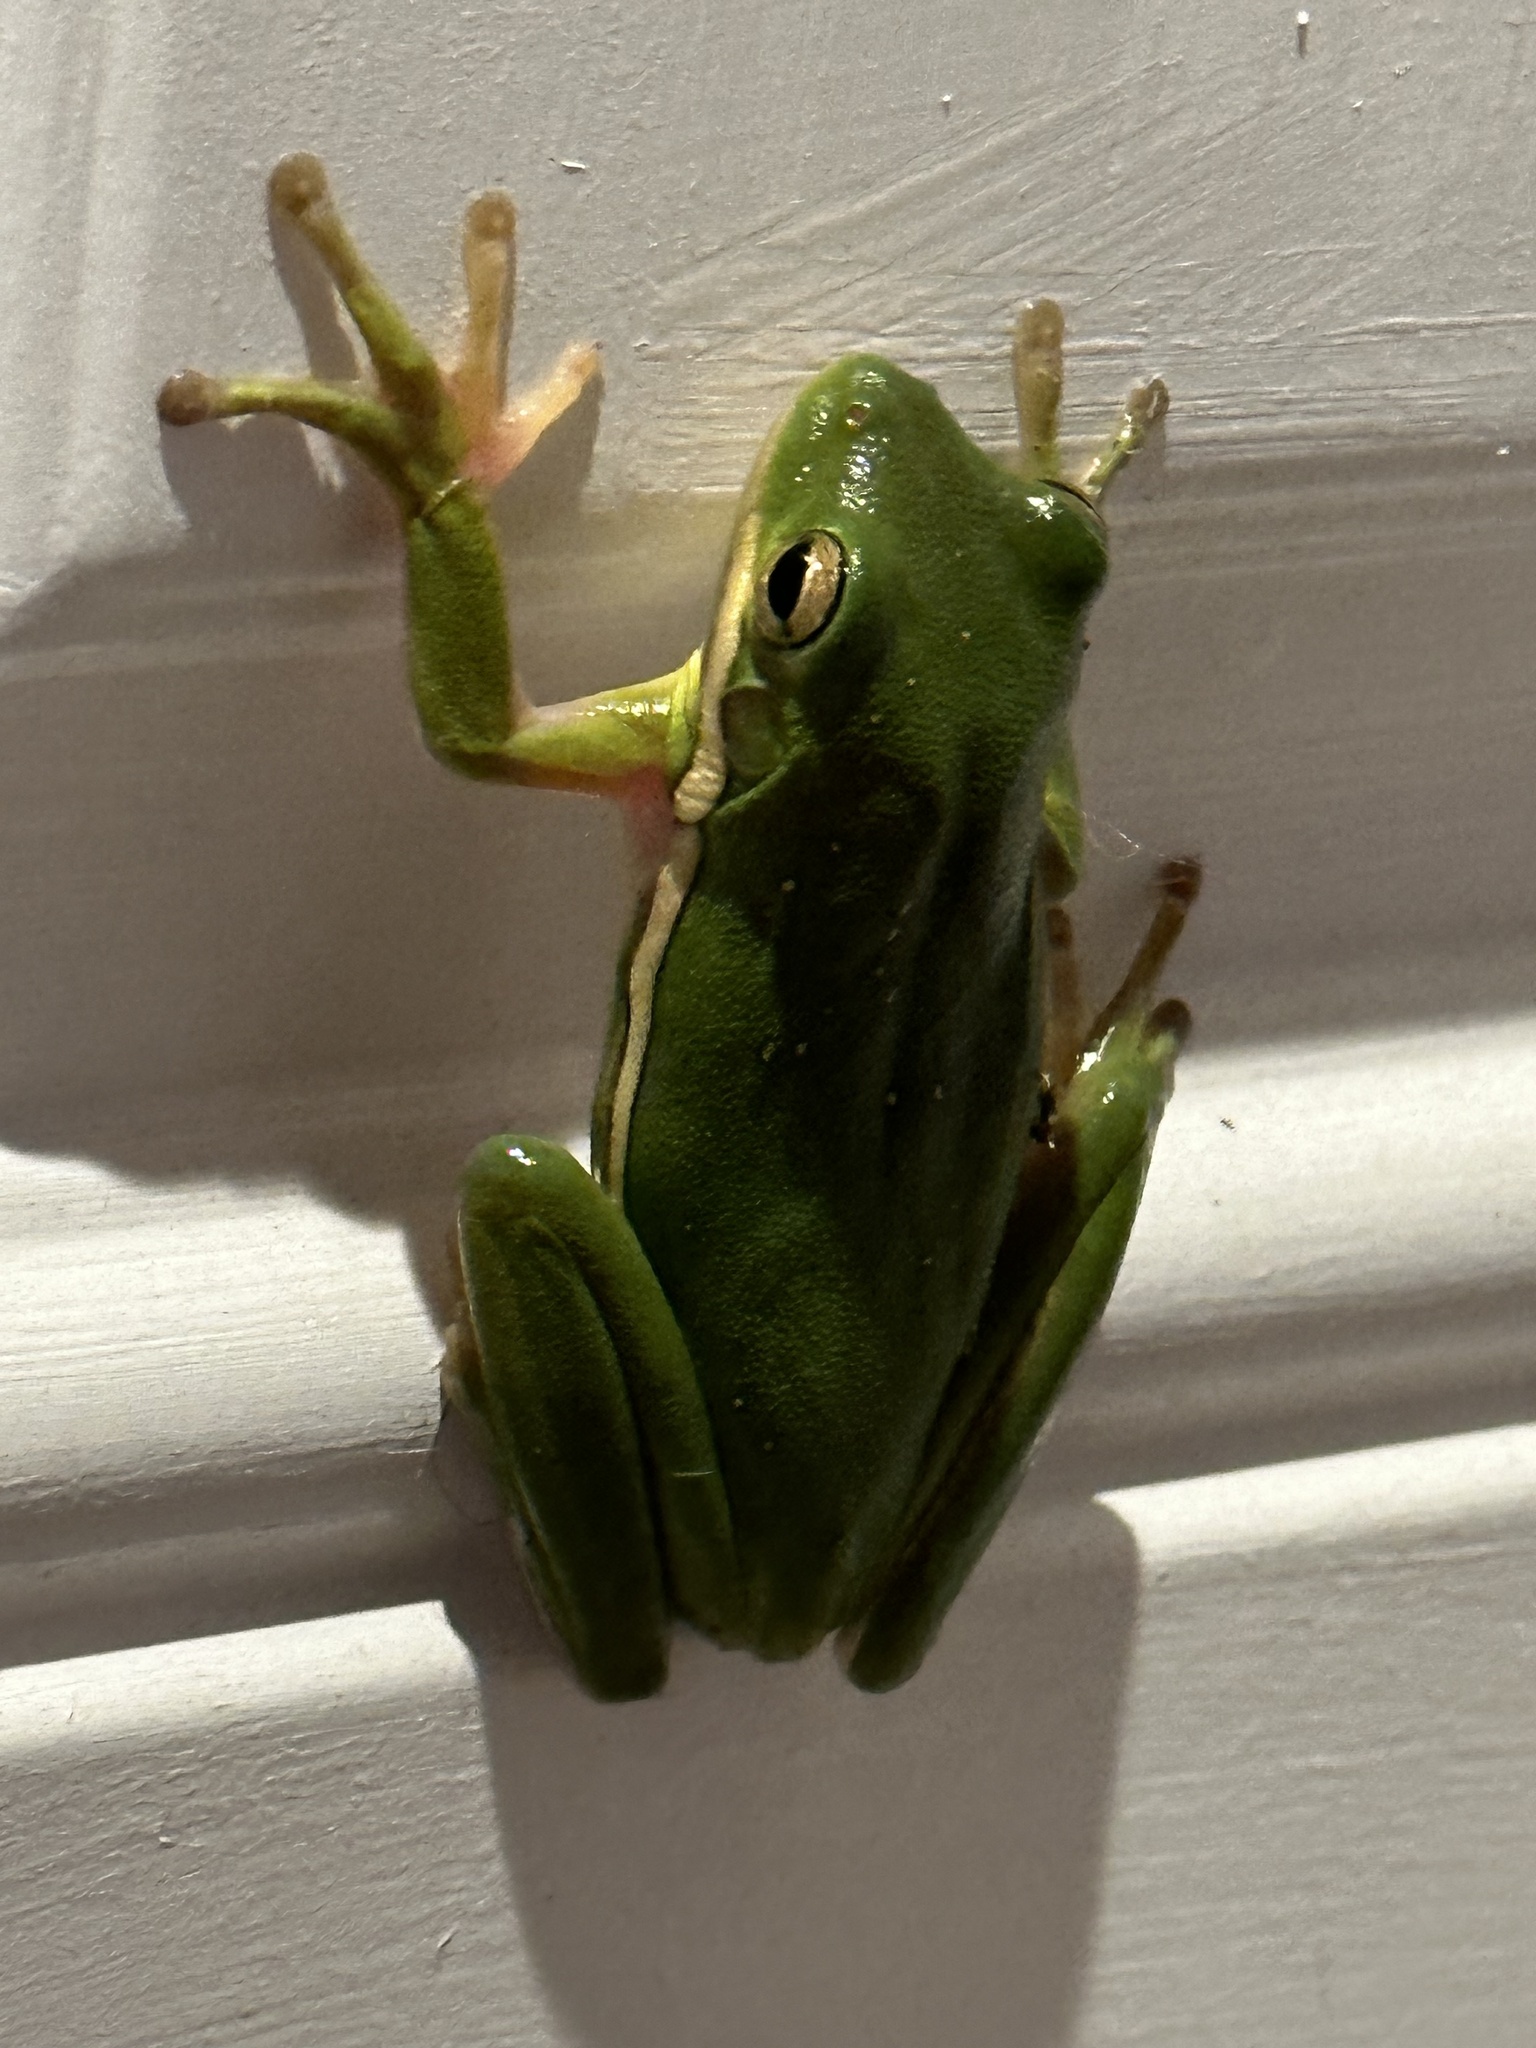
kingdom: Animalia
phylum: Chordata
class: Amphibia
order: Anura
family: Hylidae
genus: Dryophytes
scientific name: Dryophytes cinereus
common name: Green treefrog
